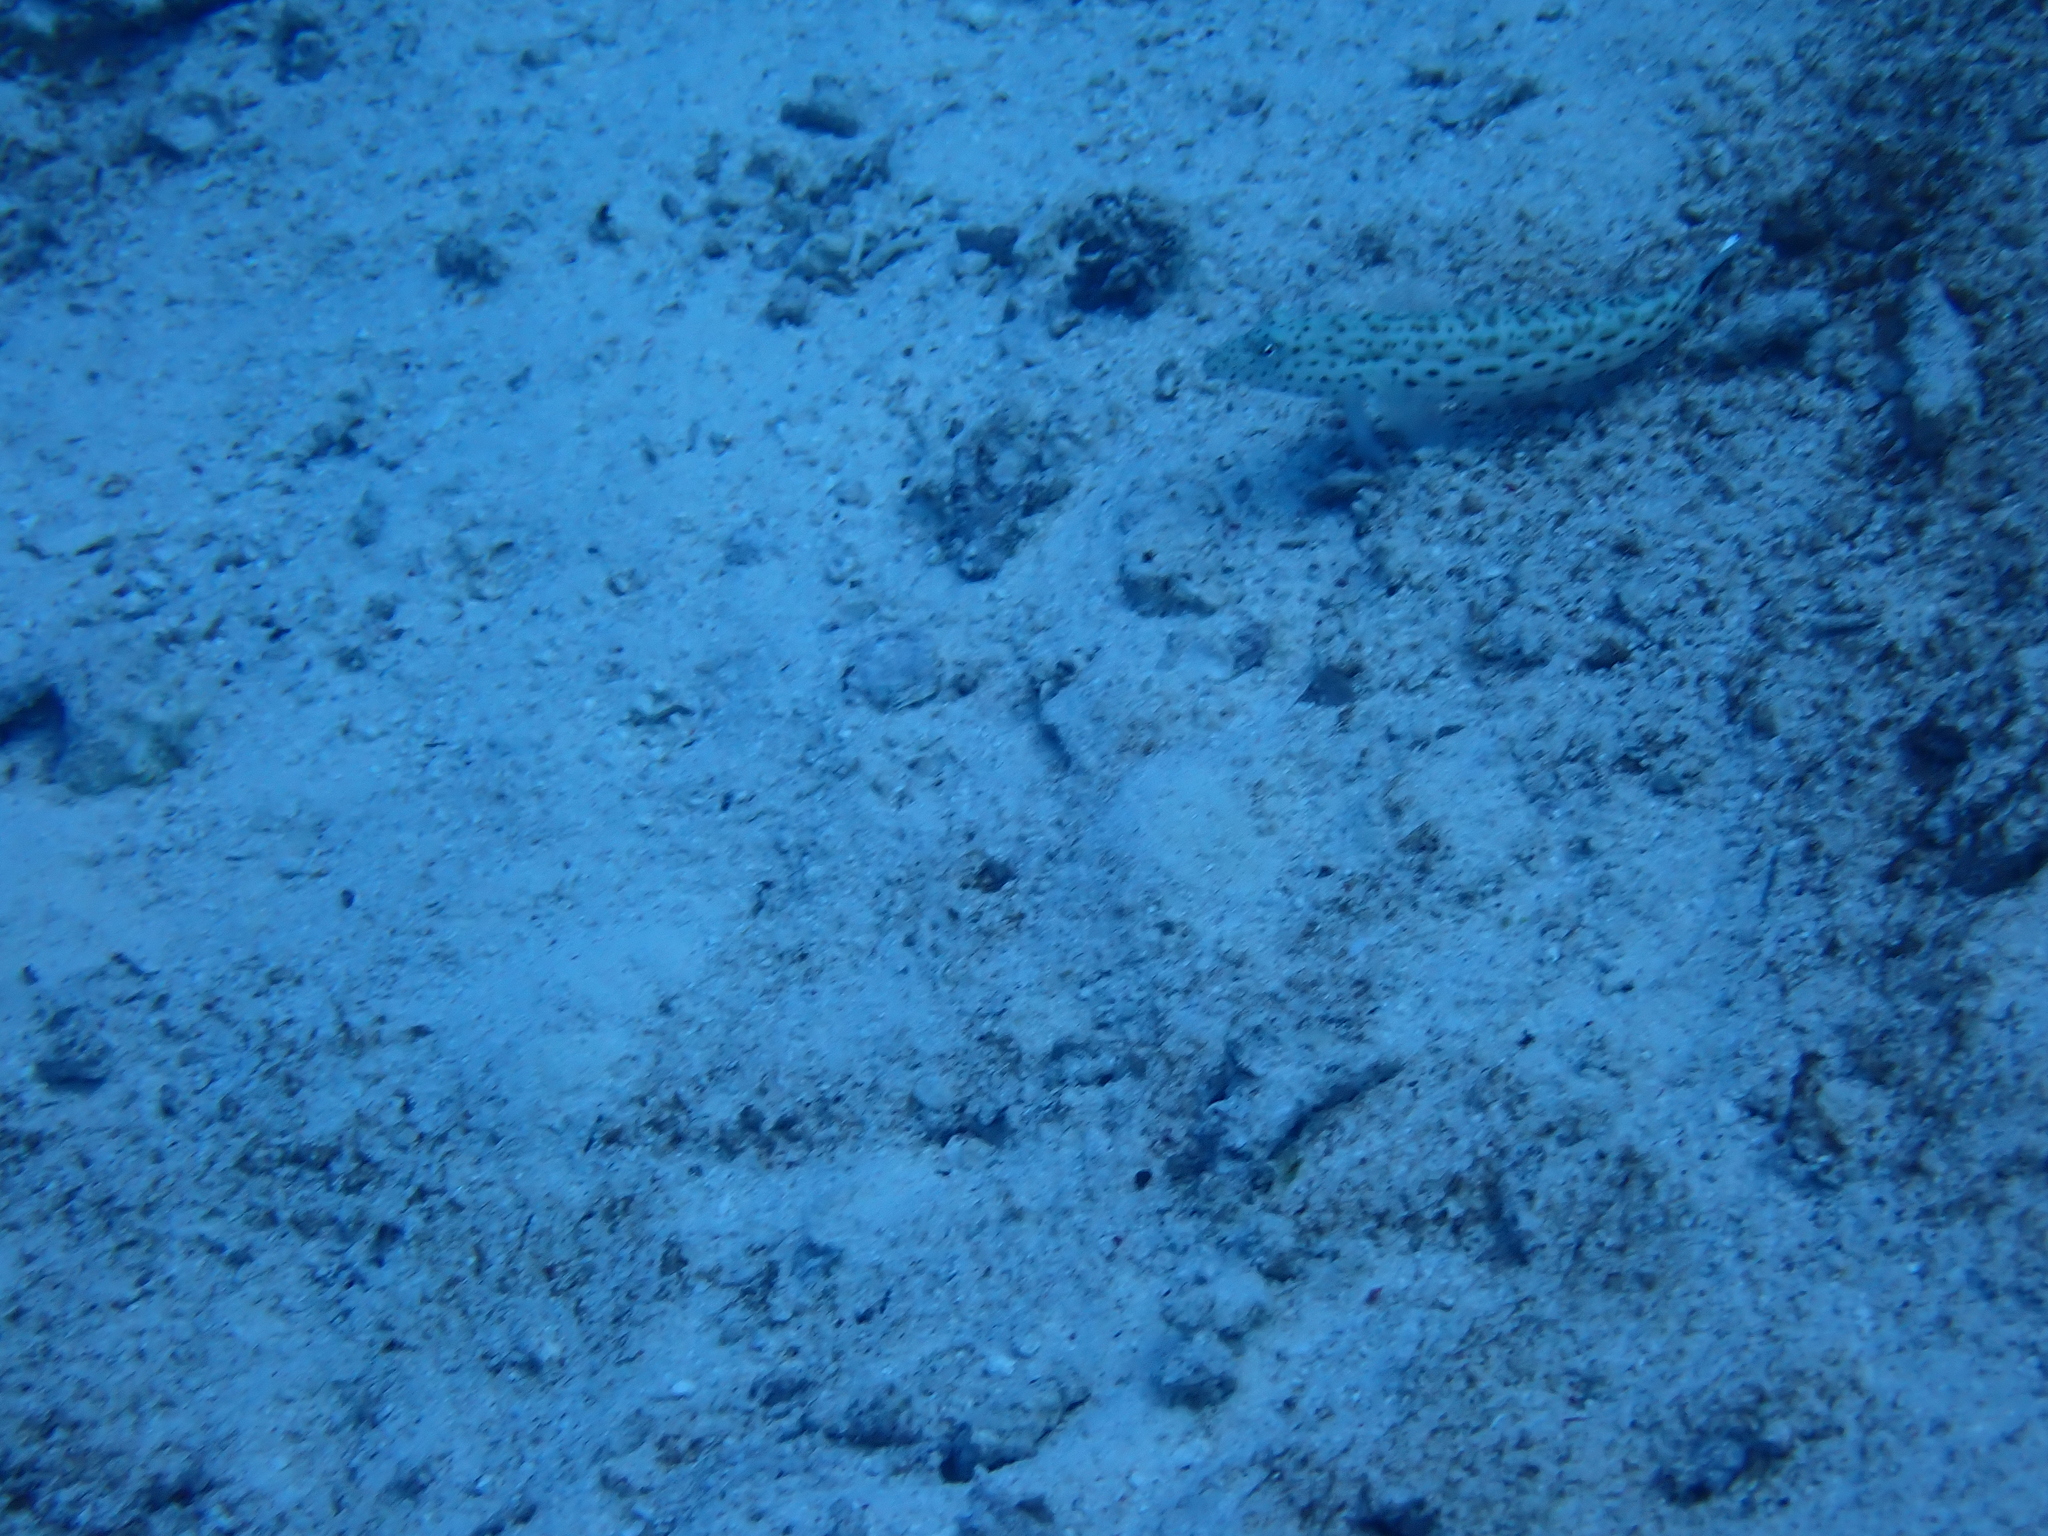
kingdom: Animalia
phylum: Chordata
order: Perciformes
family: Pinguipedidae
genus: Parapercis
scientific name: Parapercis hexophtalma
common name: Speckled sandperch
